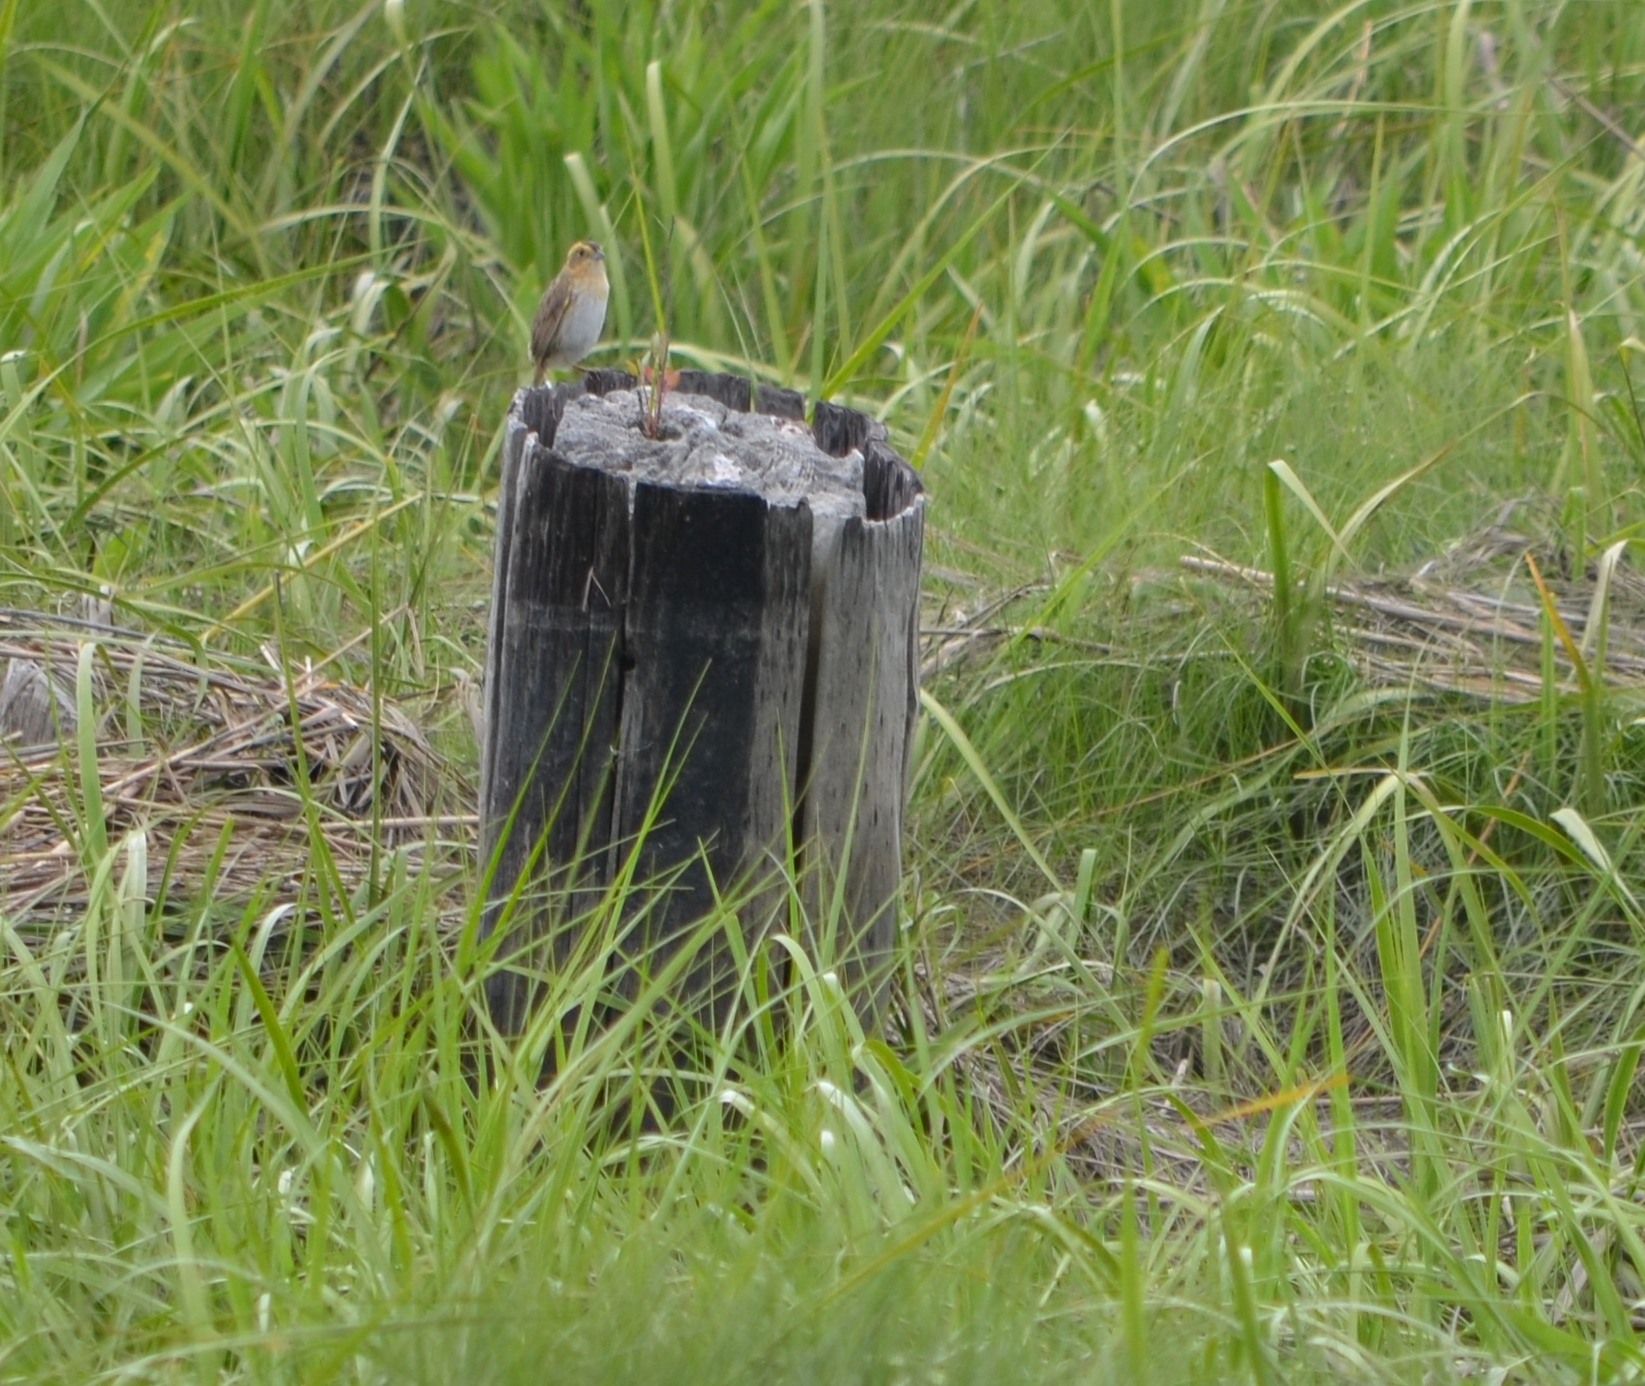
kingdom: Animalia
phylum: Chordata
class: Aves
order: Passeriformes
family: Passerellidae
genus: Ammospiza
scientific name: Ammospiza nelsoni
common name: Nelson's sparrow
